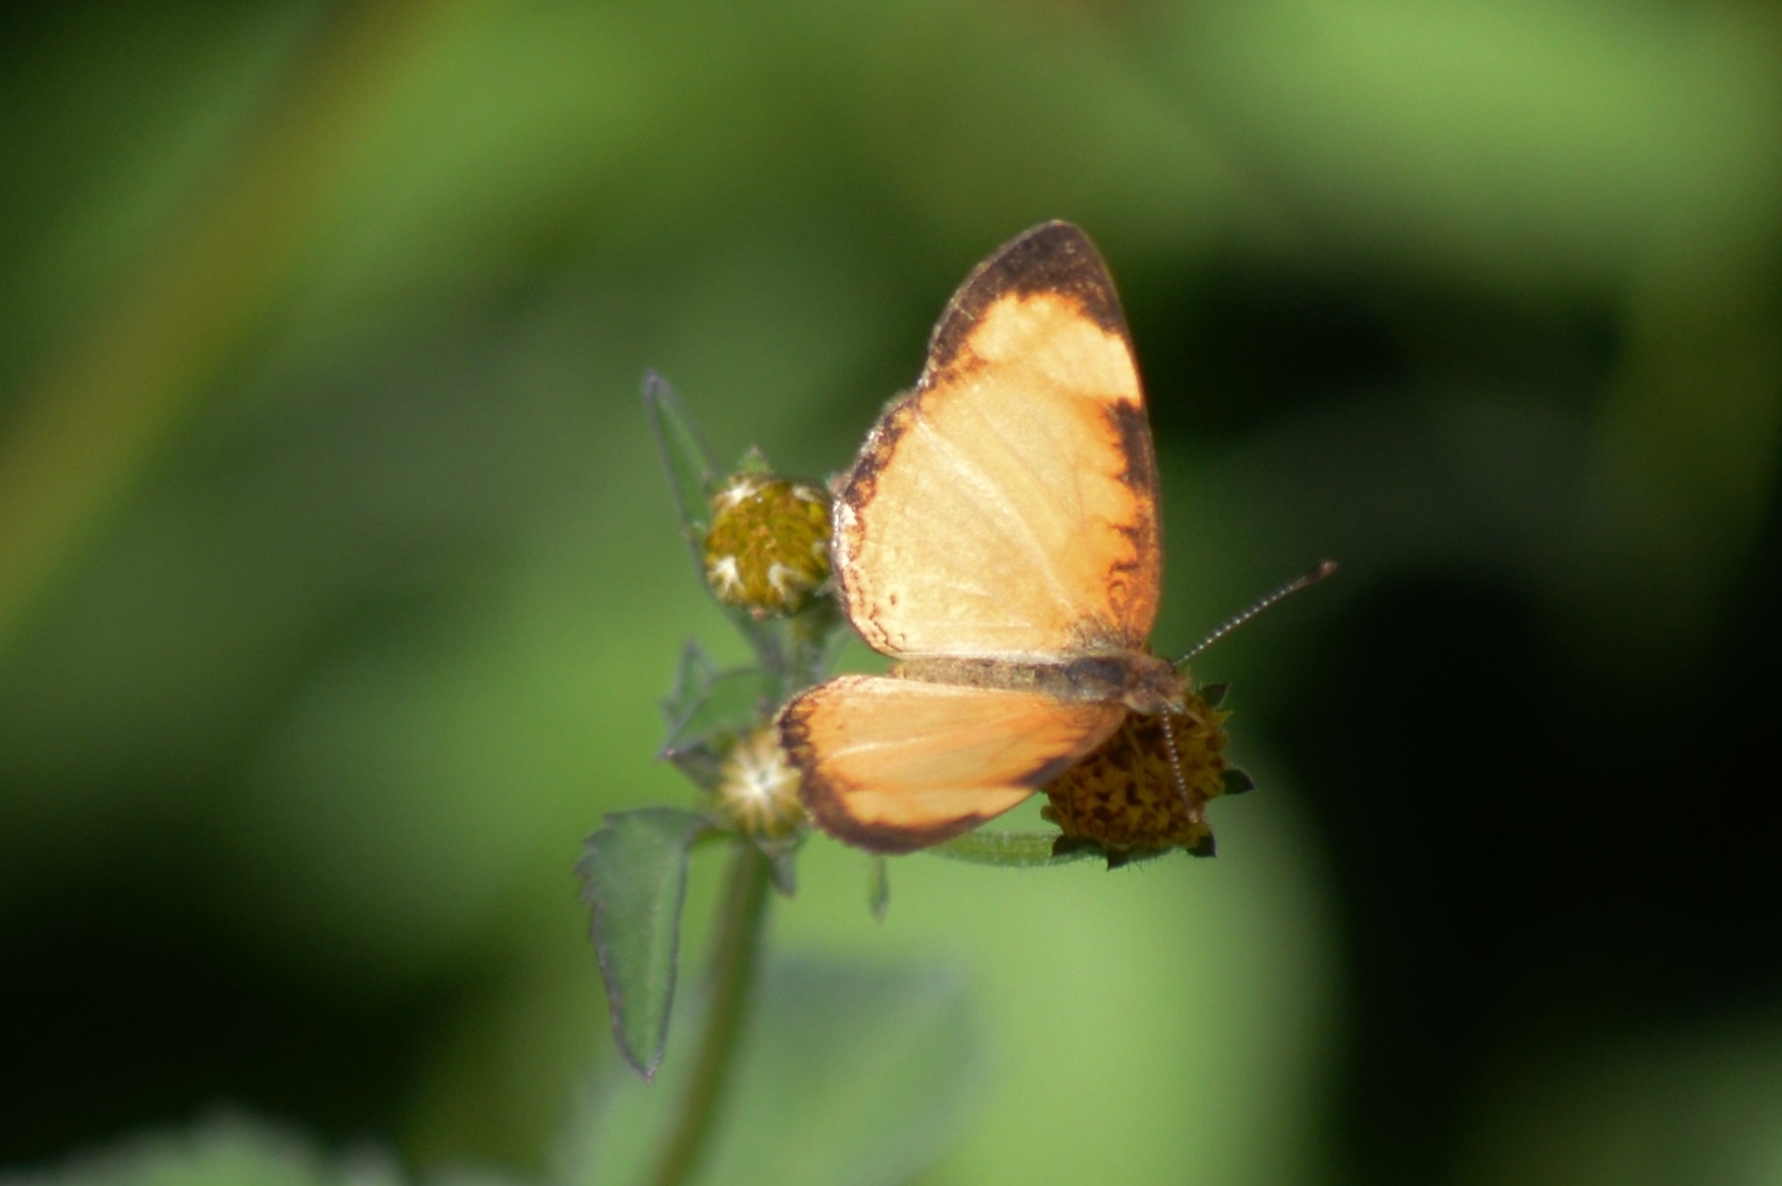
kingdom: Animalia
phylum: Arthropoda
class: Insecta
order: Lepidoptera
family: Nymphalidae
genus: Tegosa
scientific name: Tegosa claudina
